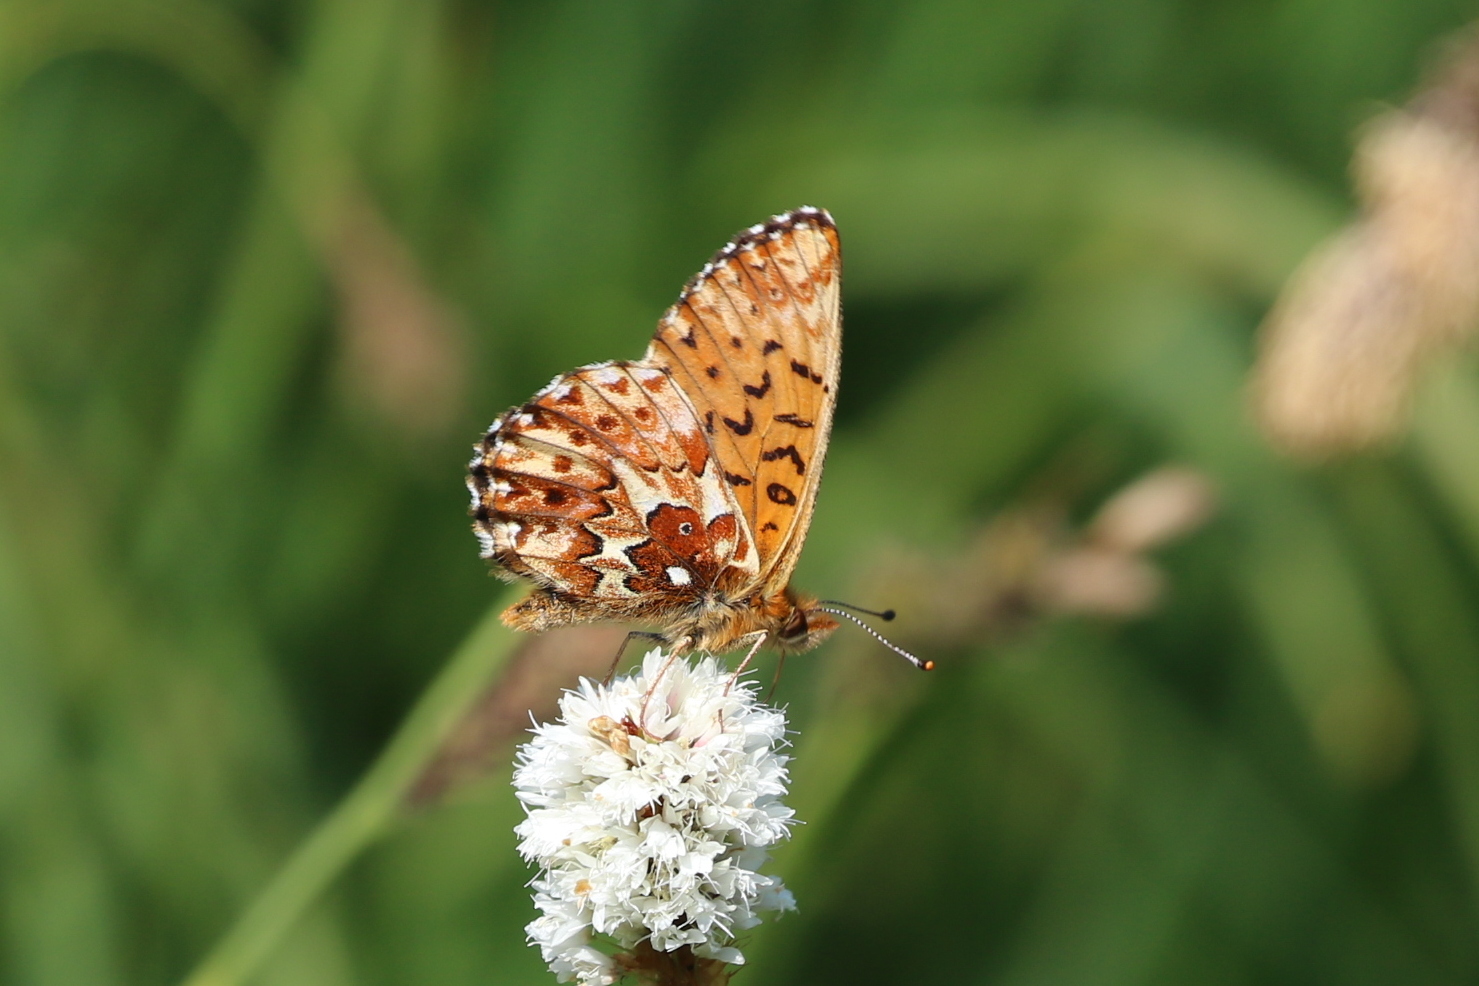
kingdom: Animalia
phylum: Arthropoda
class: Insecta
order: Lepidoptera
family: Nymphalidae
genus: Boloria
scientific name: Boloria chariclea
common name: Arctic fritillary
